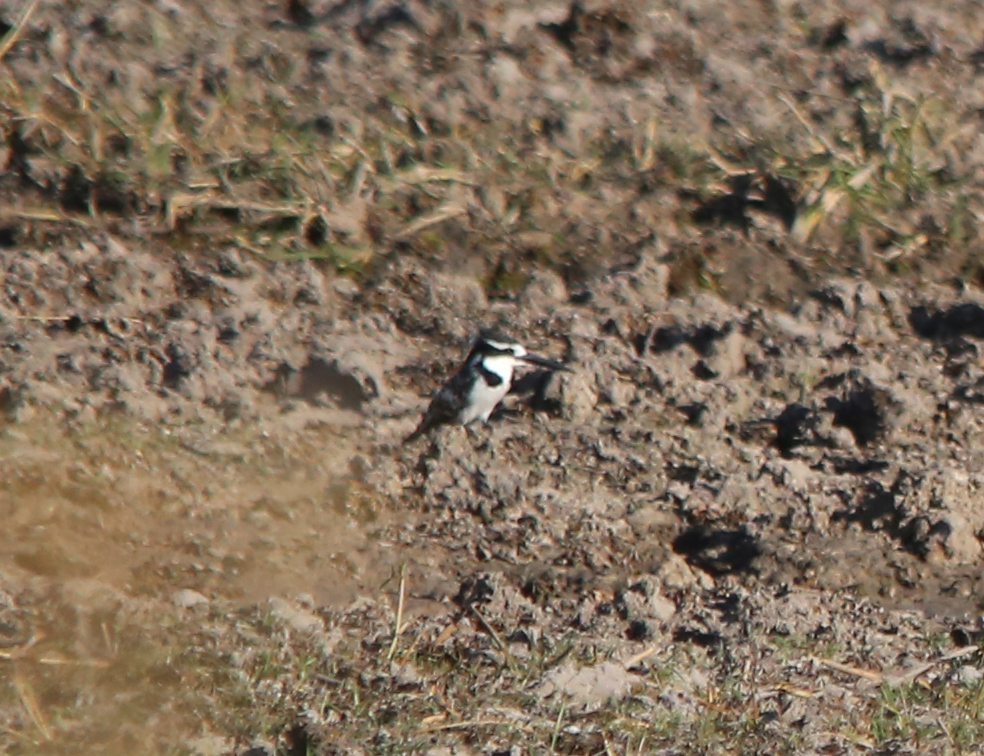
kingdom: Animalia
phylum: Chordata
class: Aves
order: Coraciiformes
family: Alcedinidae
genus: Ceryle
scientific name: Ceryle rudis
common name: Pied kingfisher
